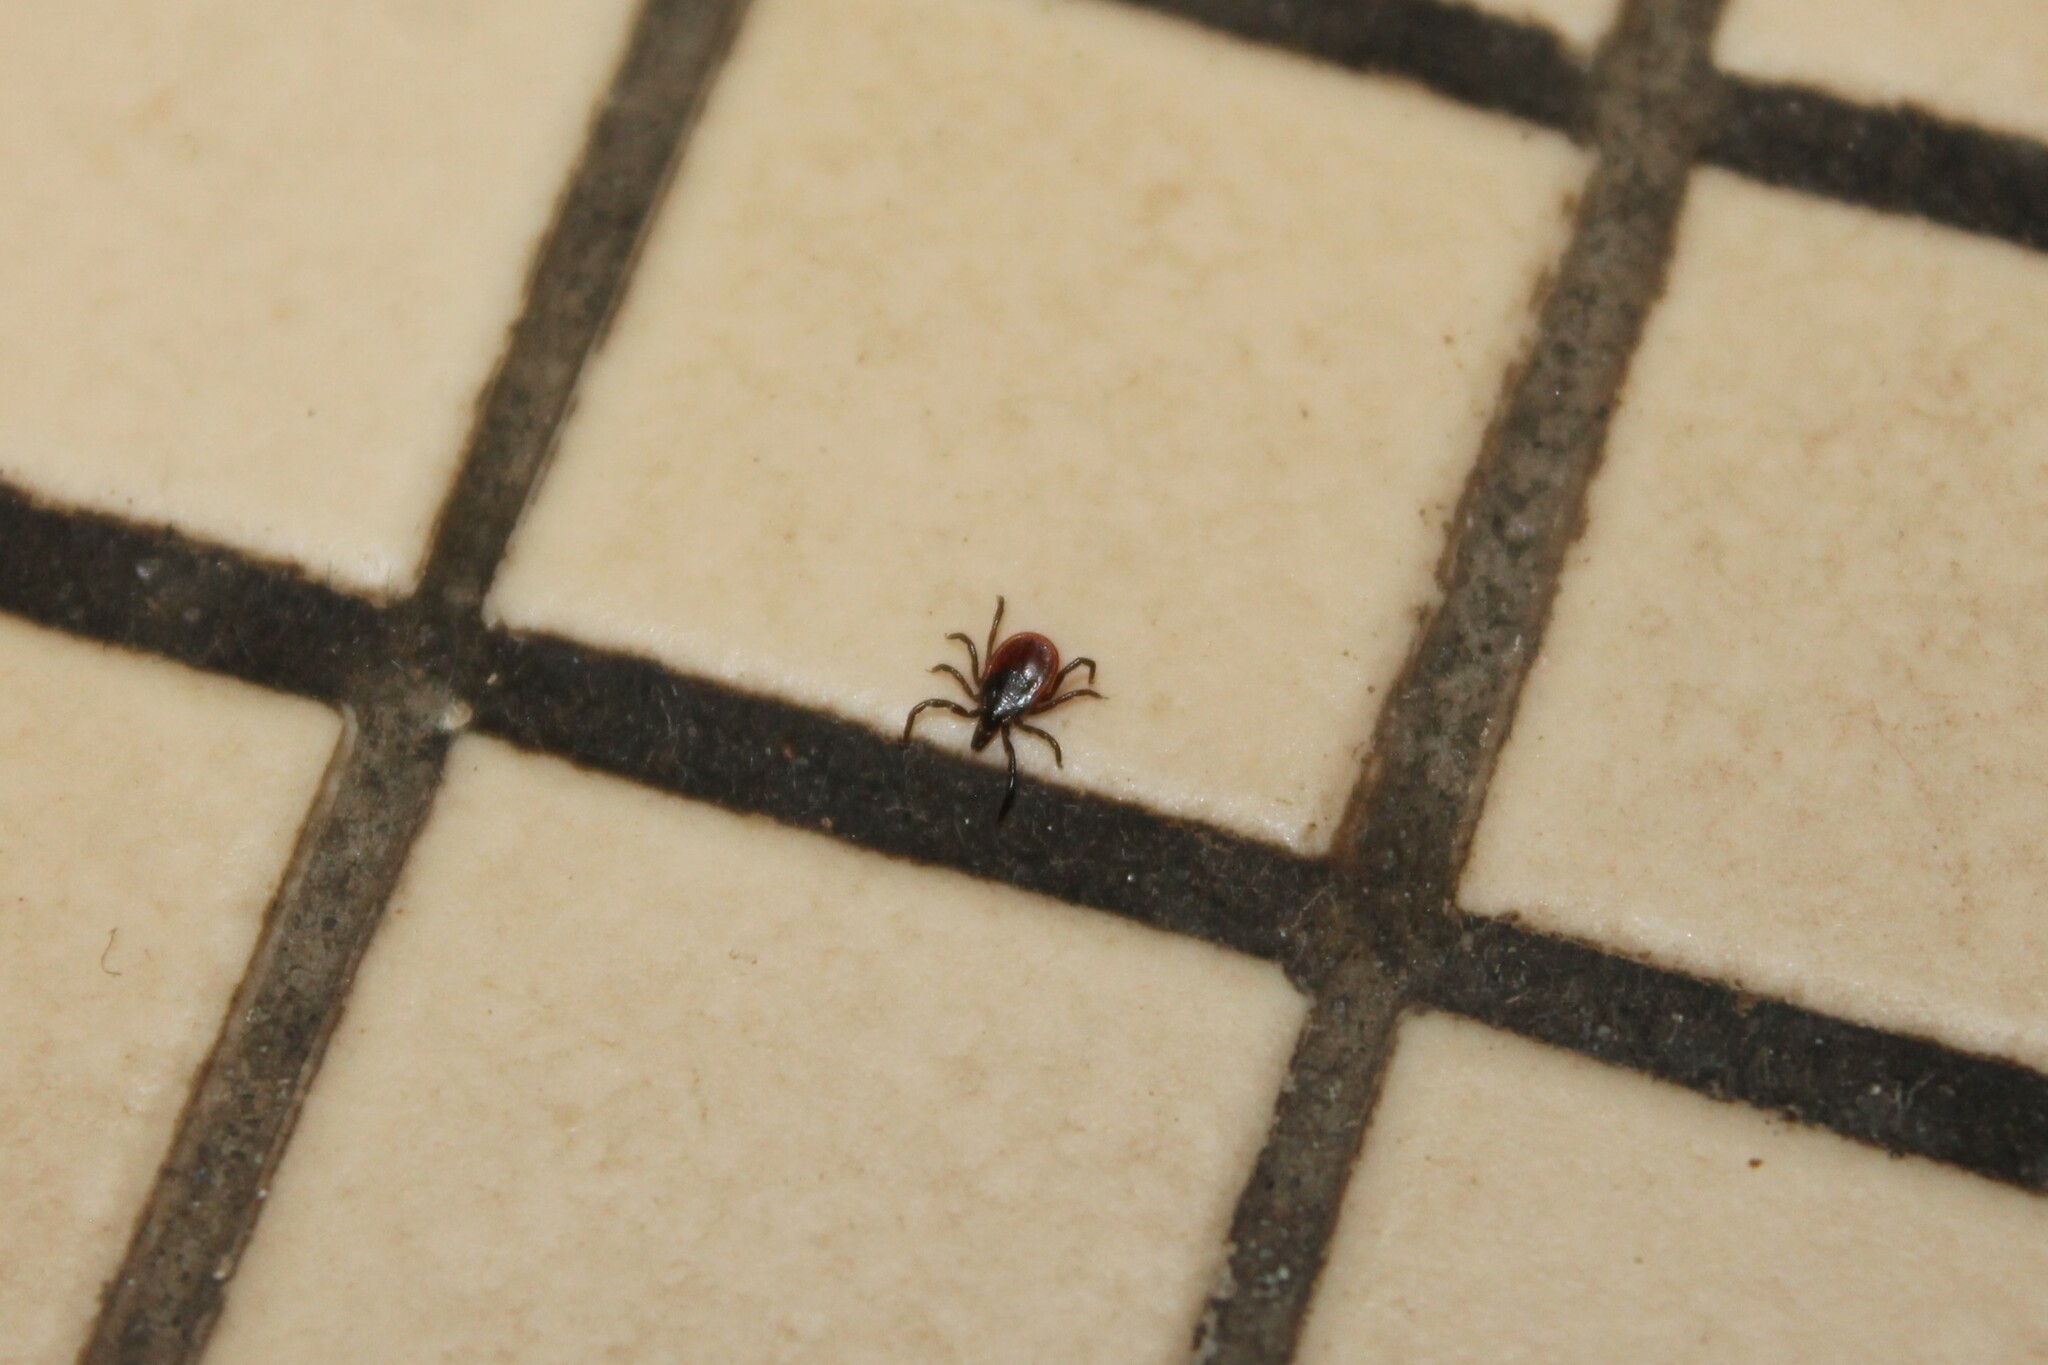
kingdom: Animalia
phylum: Arthropoda
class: Arachnida
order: Ixodida
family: Ixodidae
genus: Ixodes
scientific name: Ixodes scapularis
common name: Black legged tick
